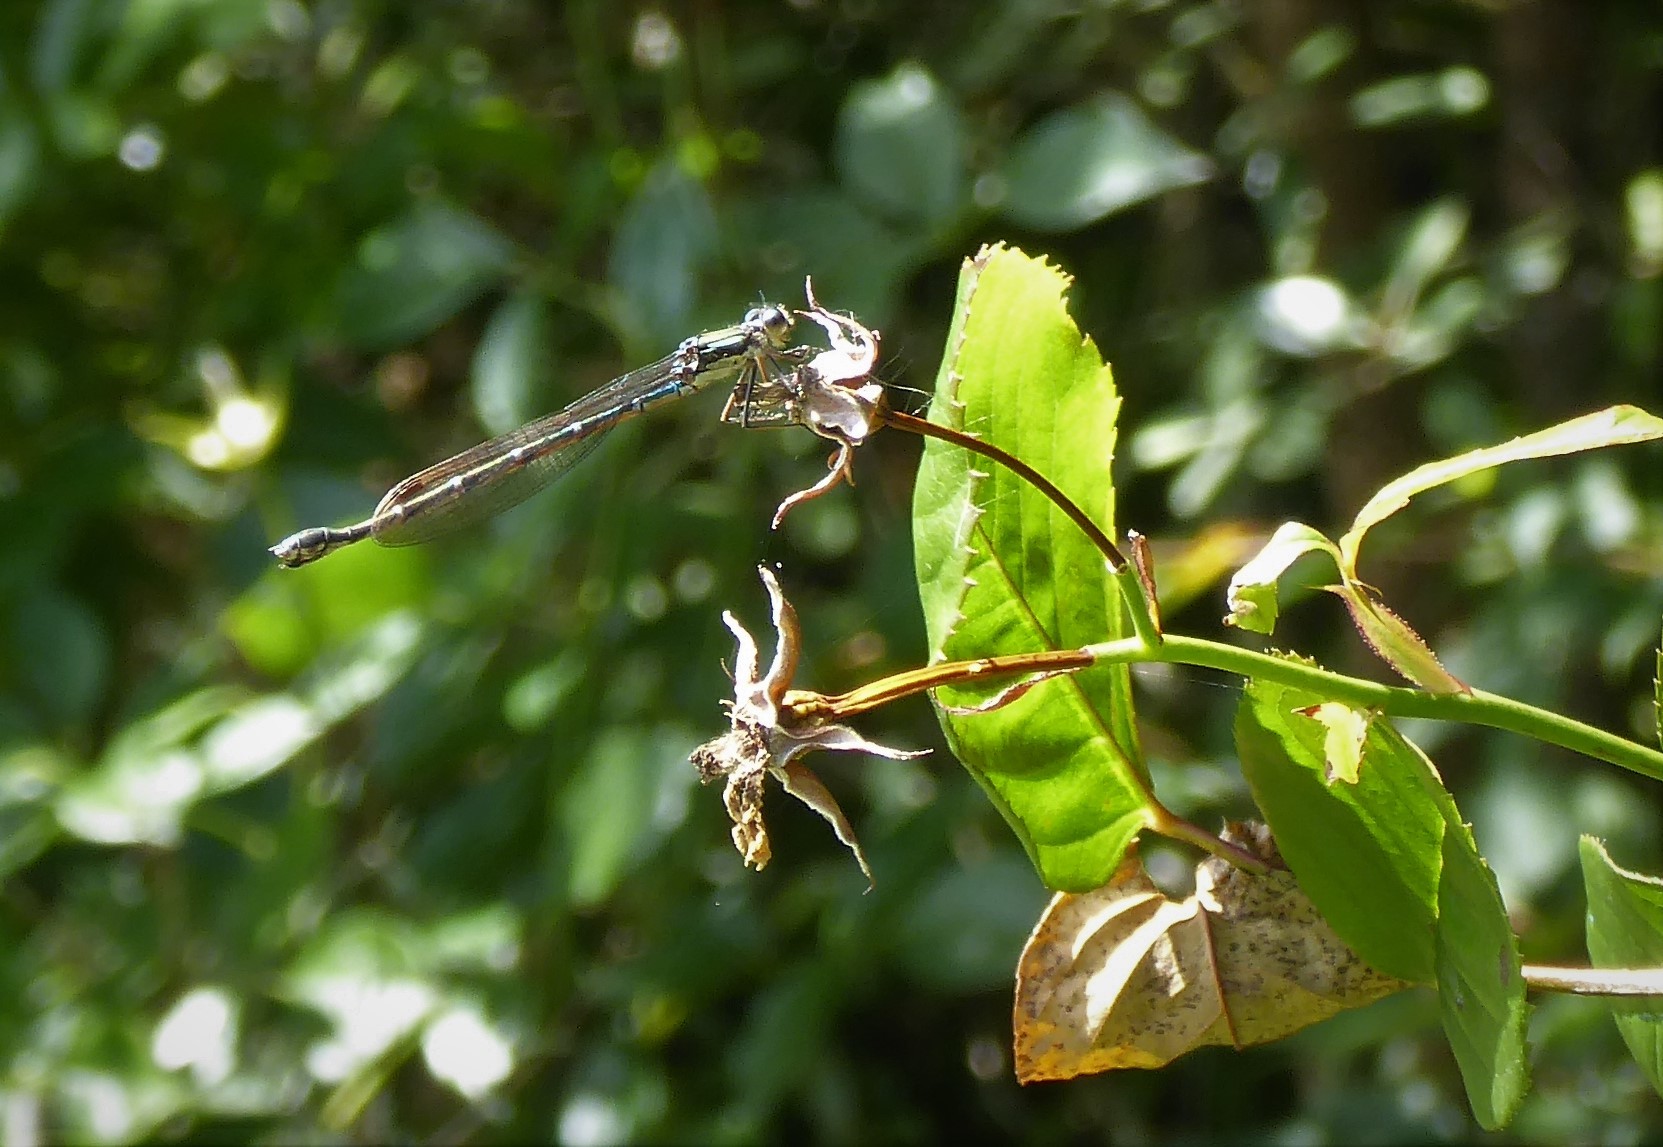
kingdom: Animalia
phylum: Arthropoda
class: Insecta
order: Odonata
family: Lestidae
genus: Austrolestes
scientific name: Austrolestes colensonis
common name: Blue damselfly
